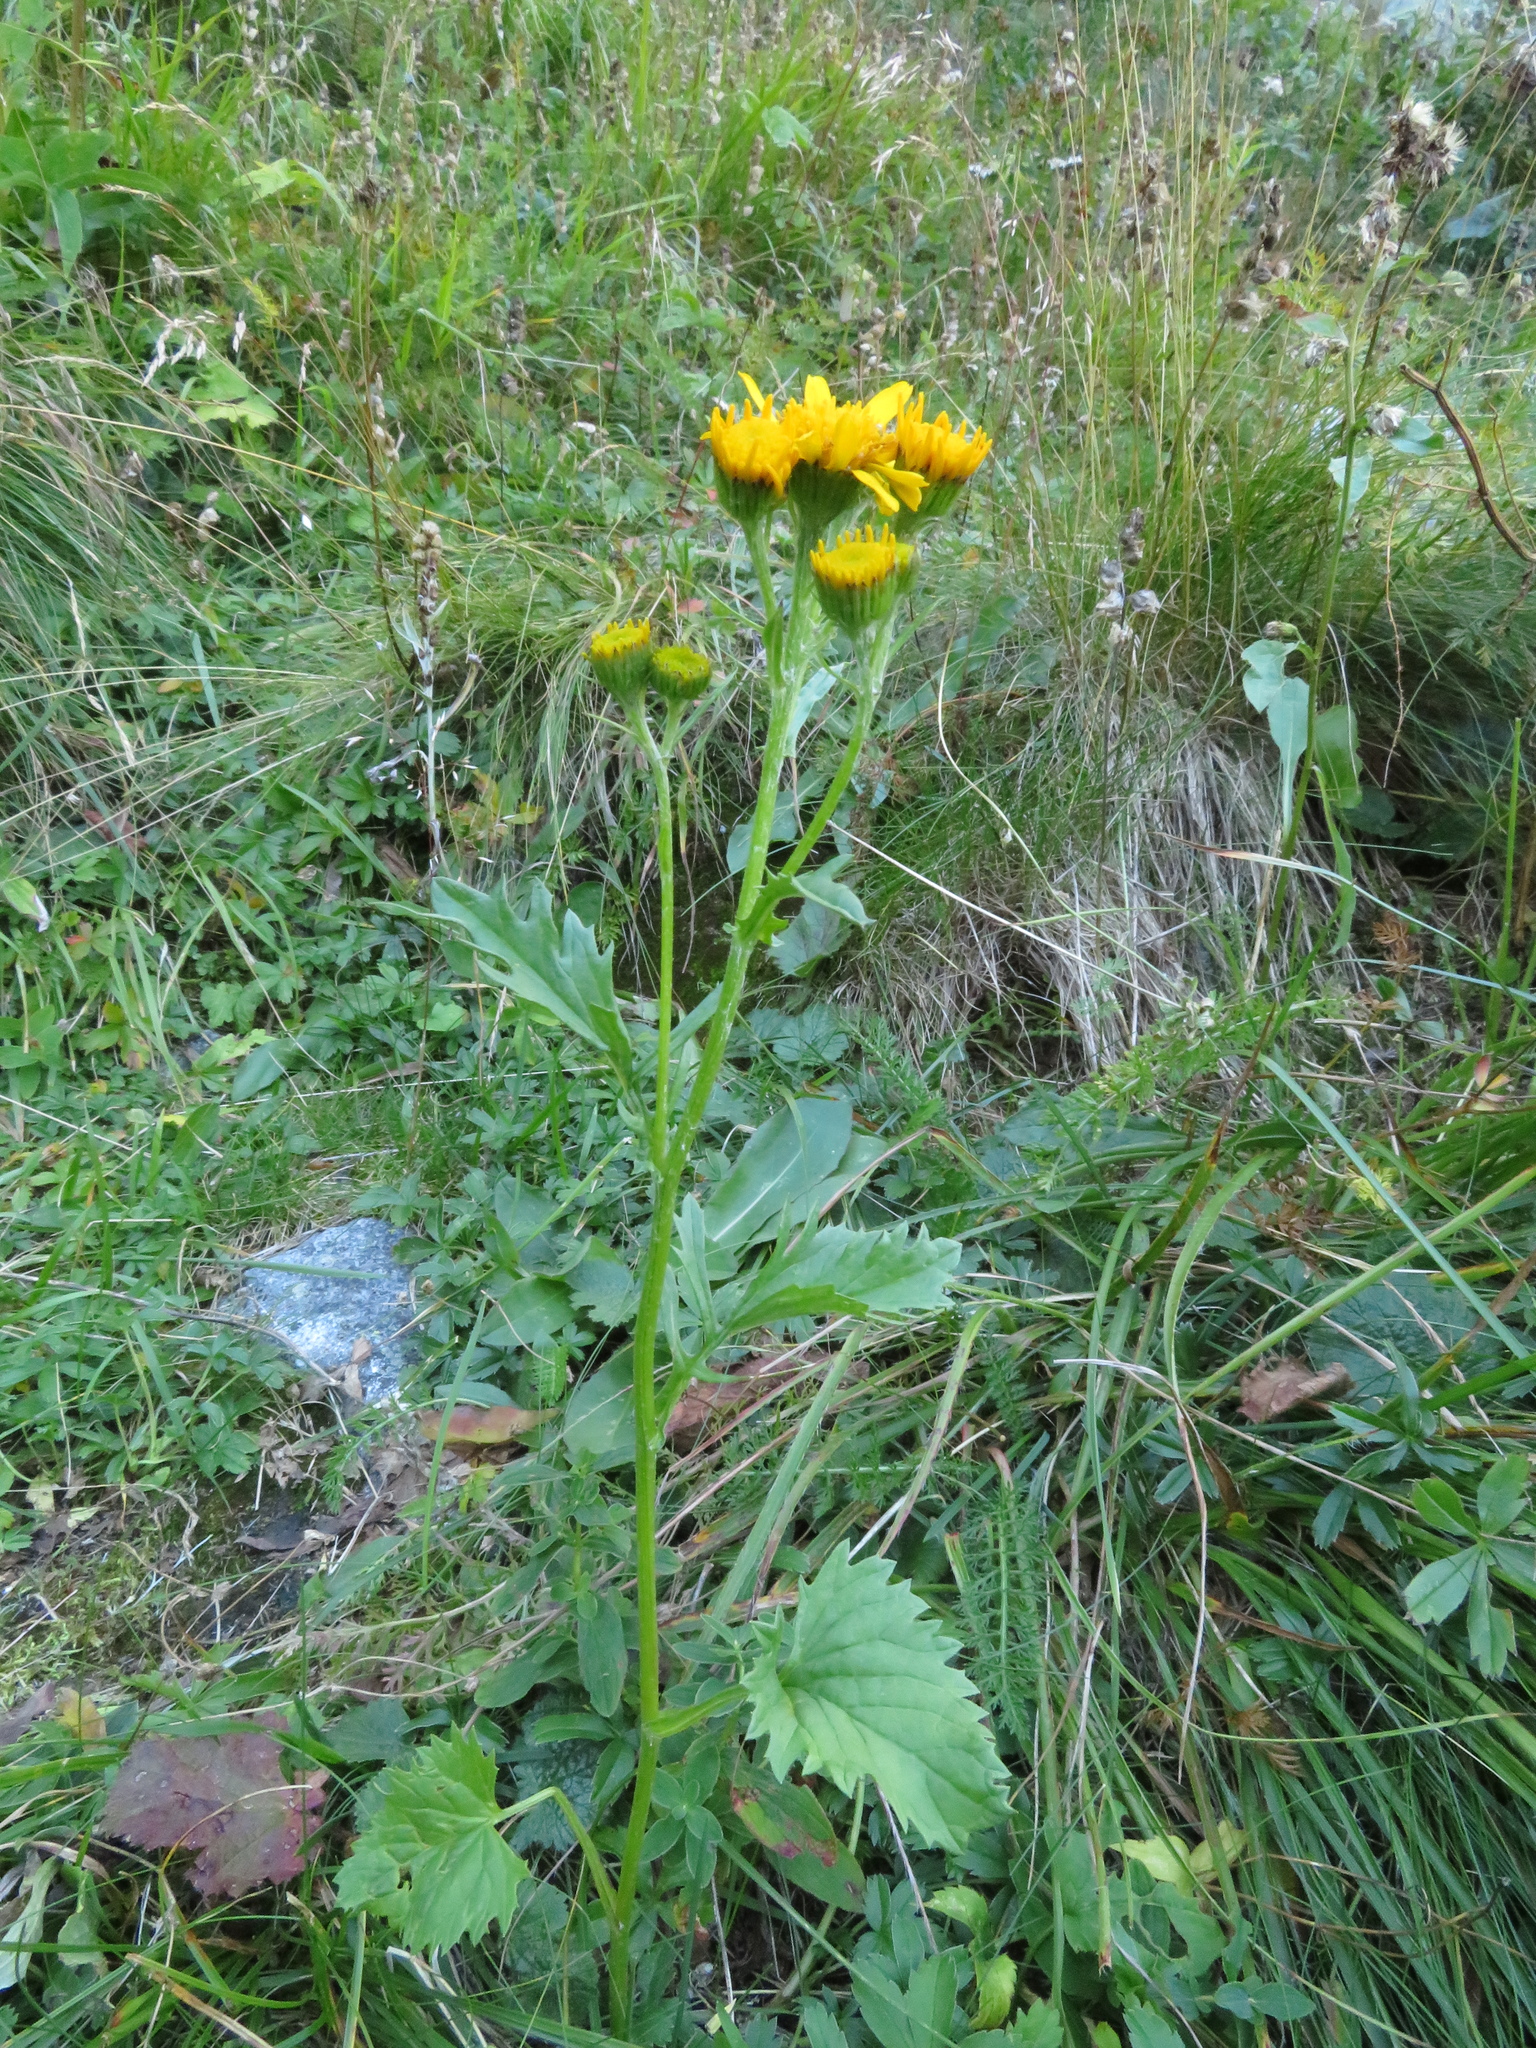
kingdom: Plantae
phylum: Tracheophyta
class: Magnoliopsida
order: Asterales
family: Asteraceae
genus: Jacobaea
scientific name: Jacobaea subalpina
